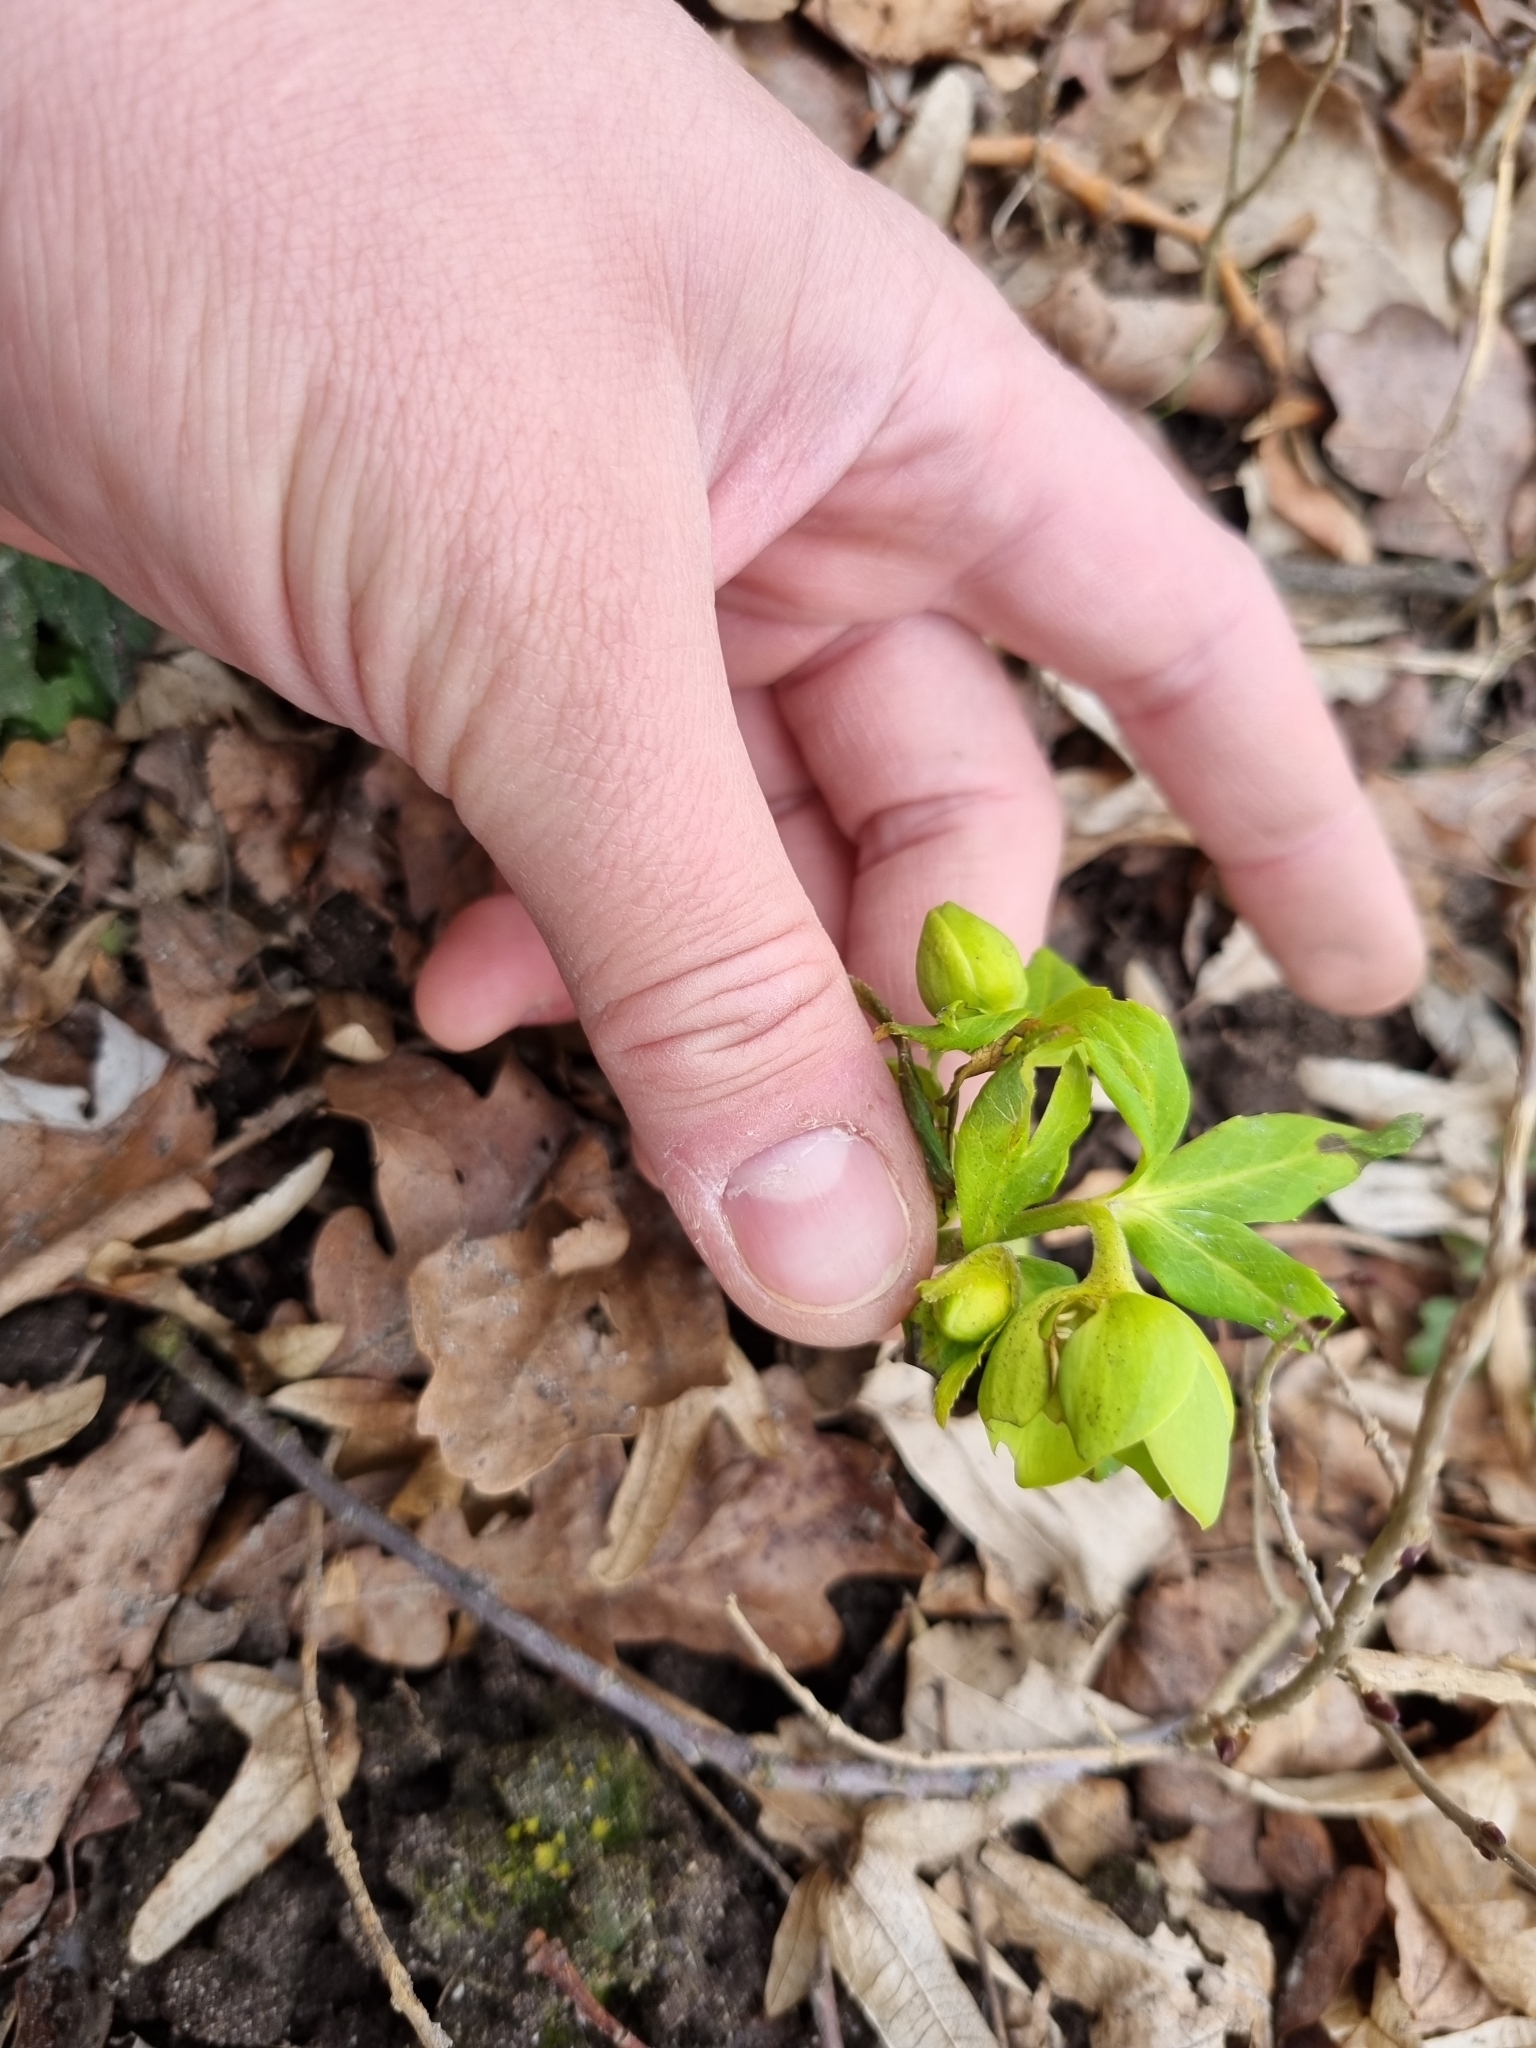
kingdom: Plantae
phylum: Tracheophyta
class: Magnoliopsida
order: Ranunculales
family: Ranunculaceae
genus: Helleborus
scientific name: Helleborus odorus
